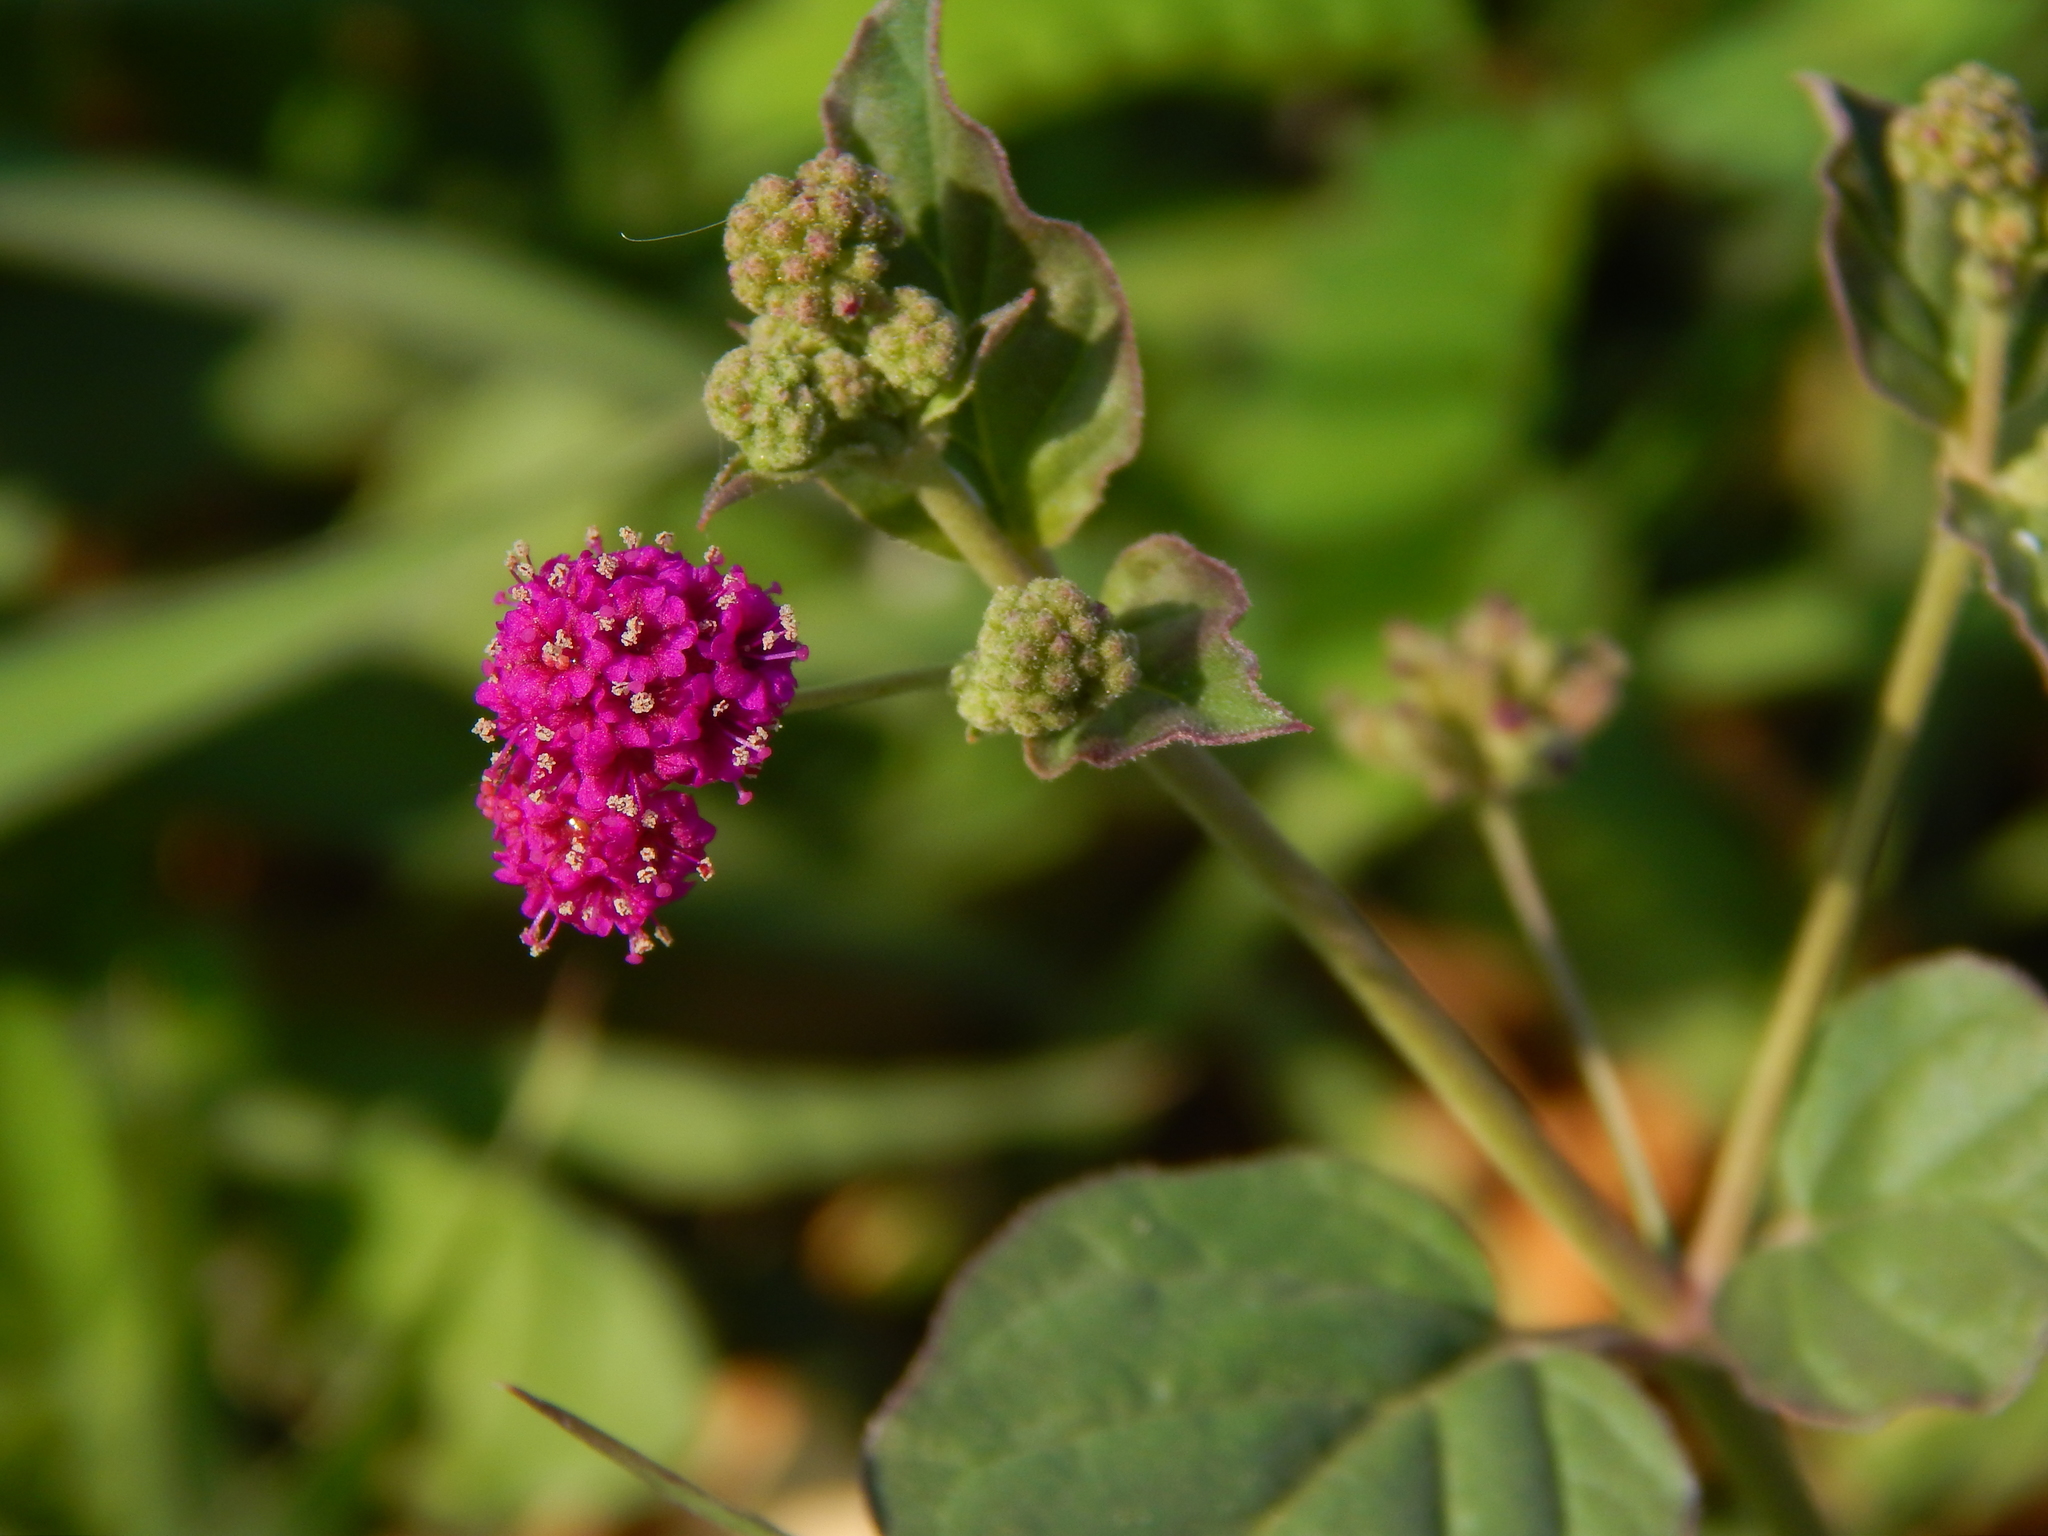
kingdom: Plantae
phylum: Tracheophyta
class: Magnoliopsida
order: Caryophyllales
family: Nyctaginaceae
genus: Boerhavia
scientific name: Boerhavia coccinea
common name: Scarlet spiderling
